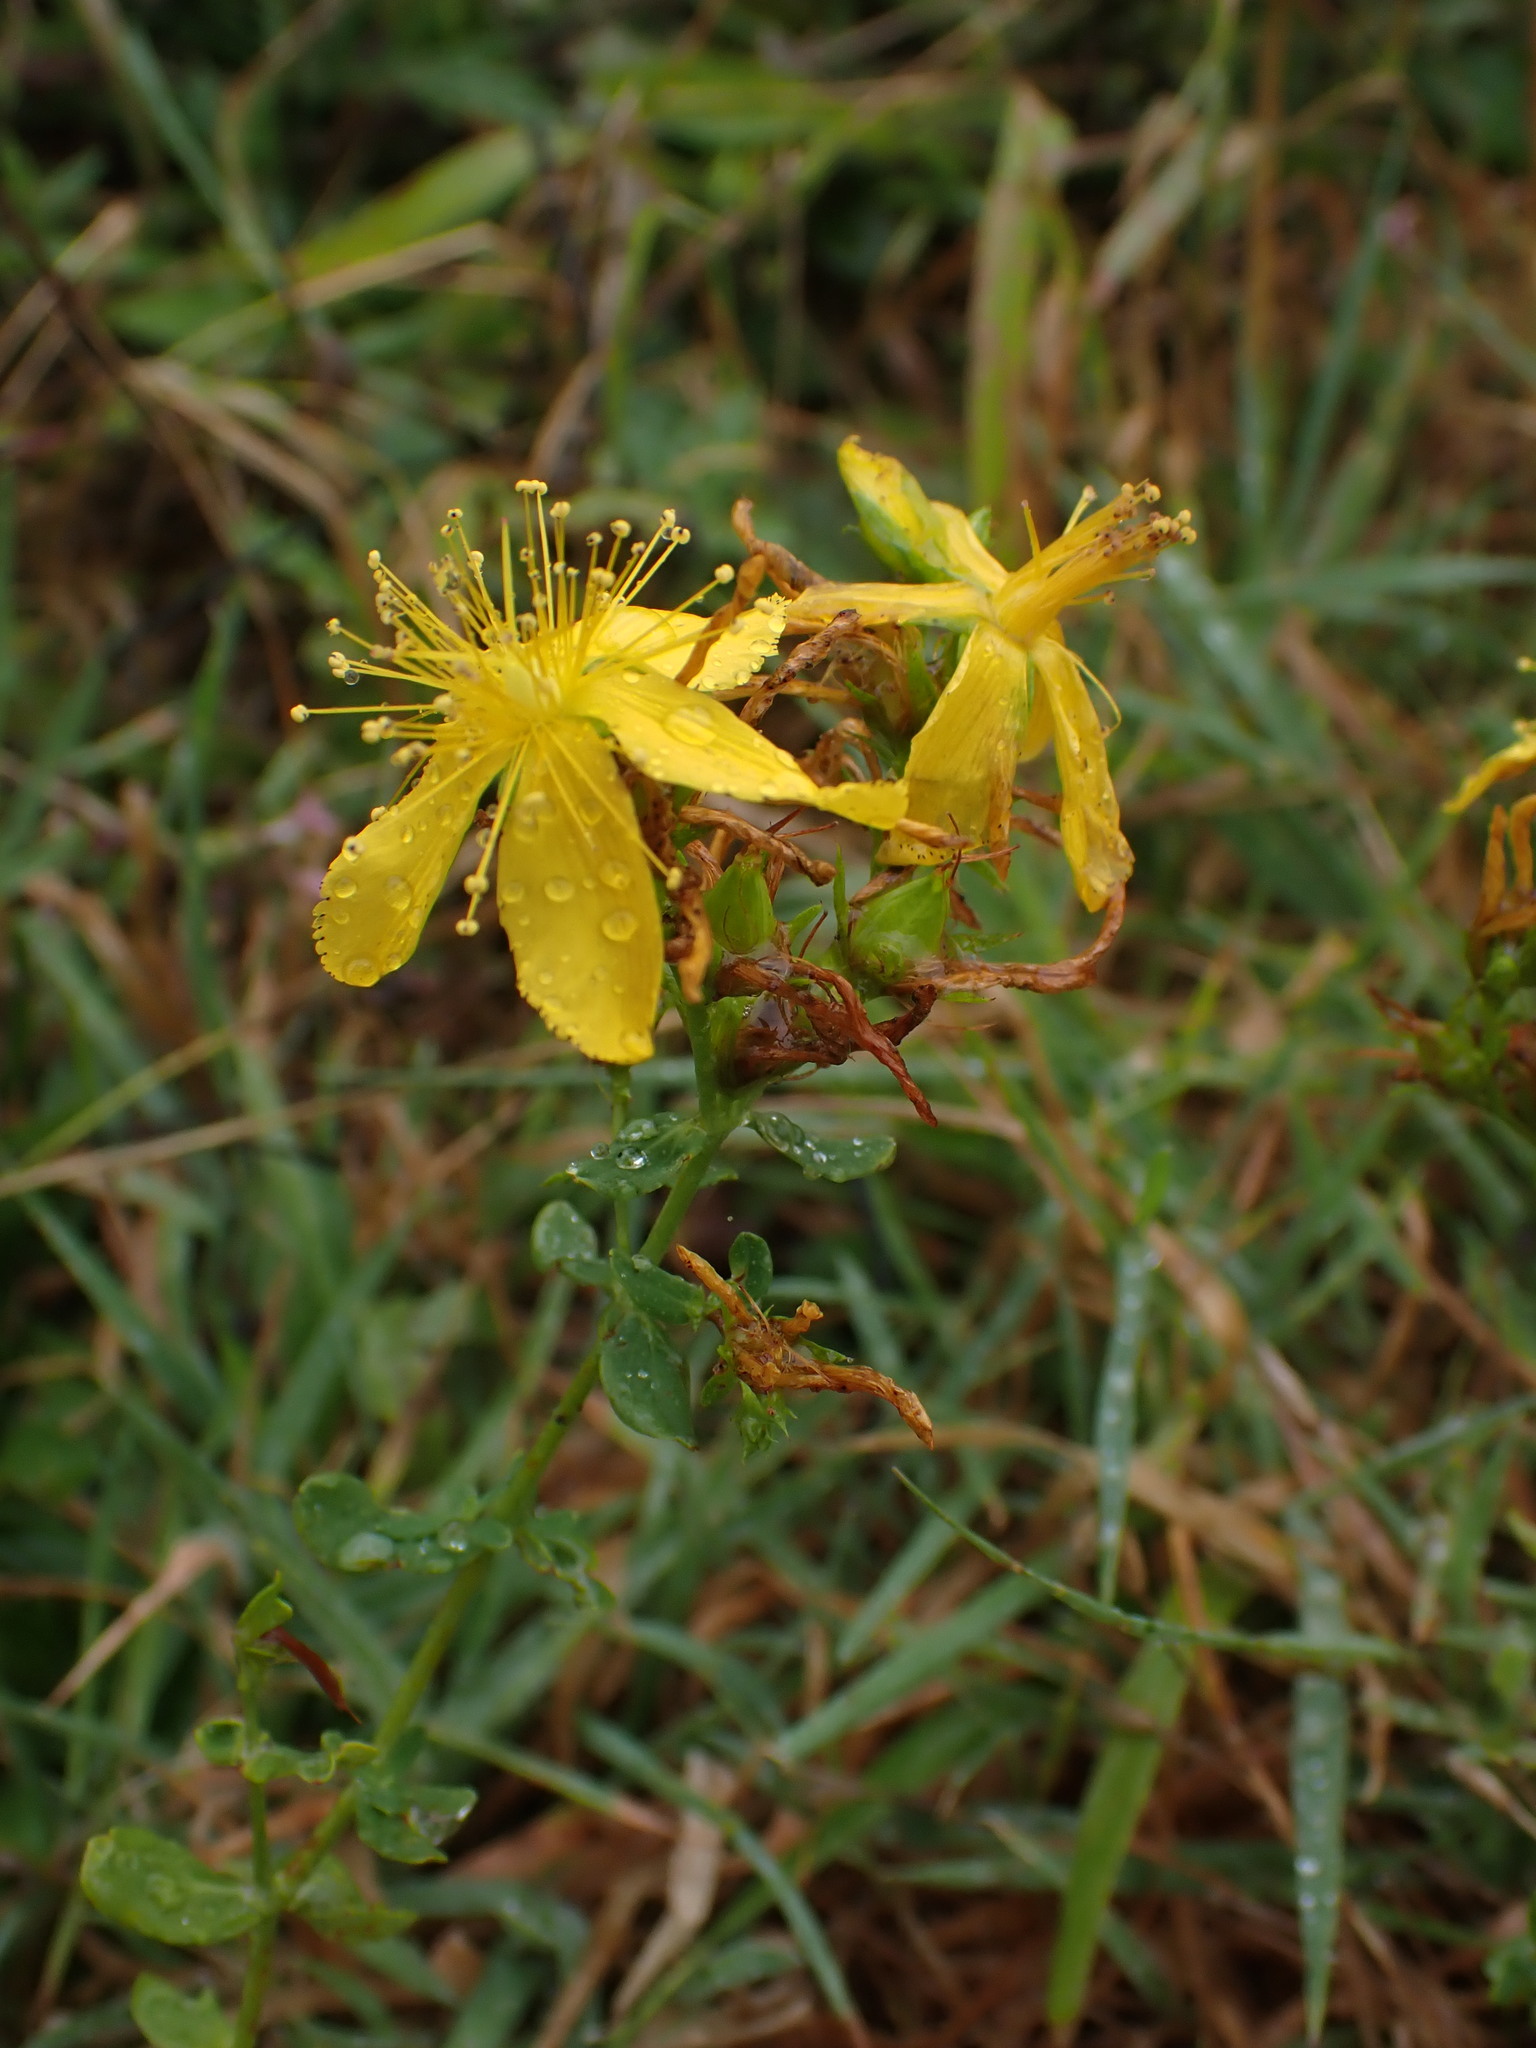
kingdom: Plantae
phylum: Tracheophyta
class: Magnoliopsida
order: Malpighiales
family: Hypericaceae
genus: Hypericum
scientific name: Hypericum perforatum
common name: Common st. johnswort
